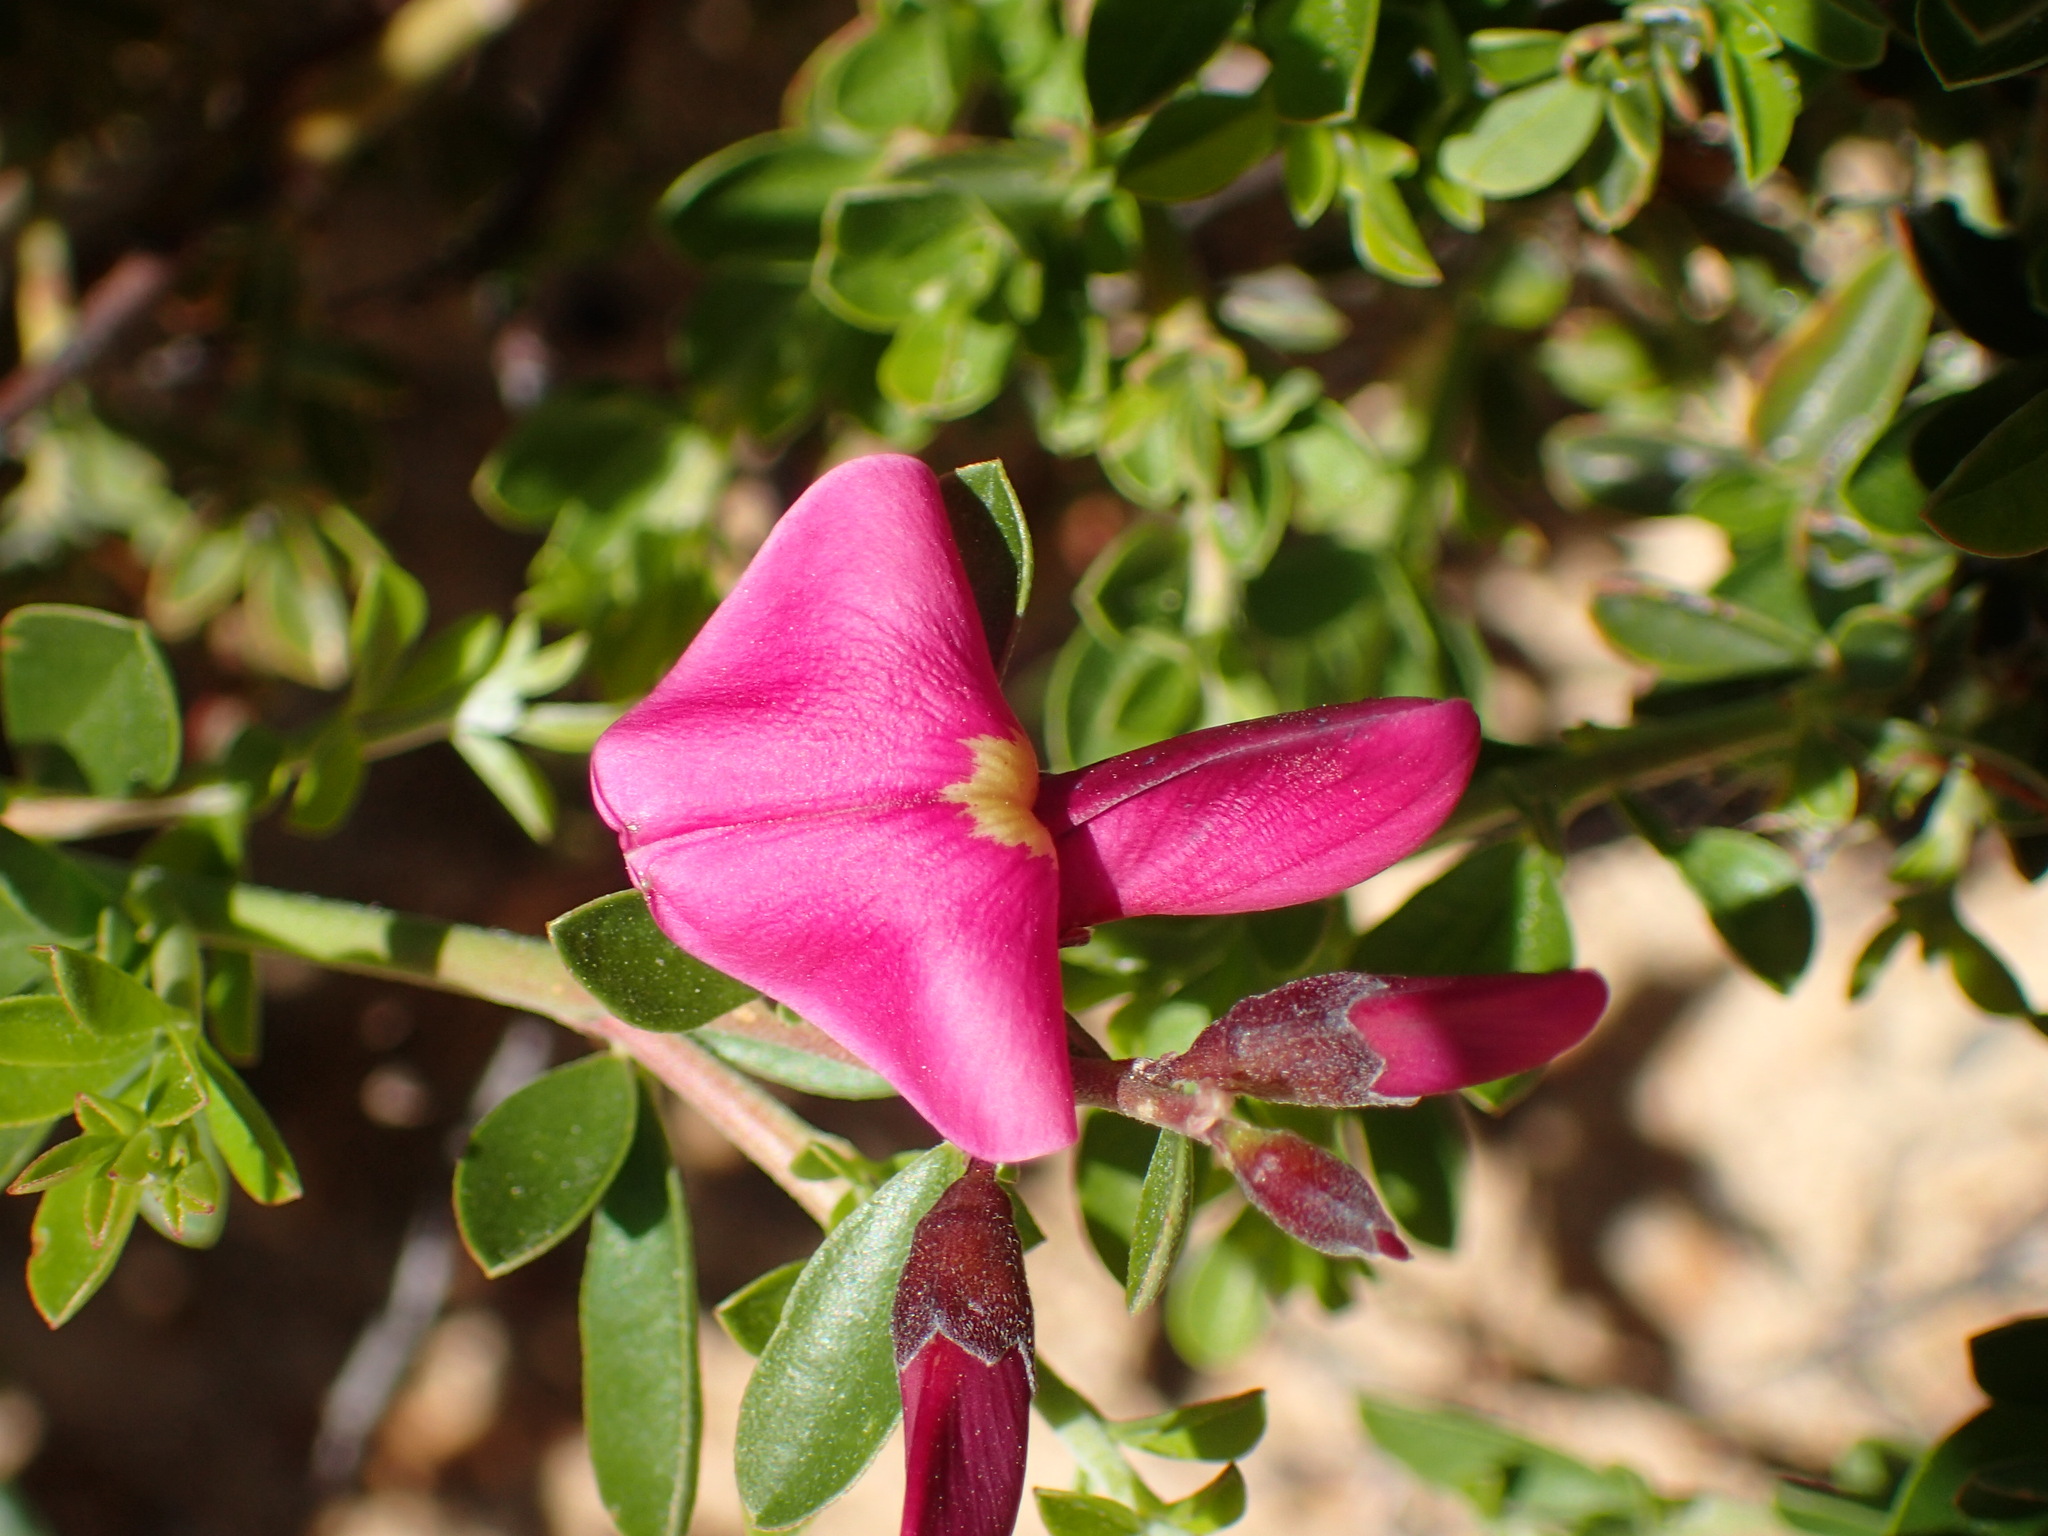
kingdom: Plantae
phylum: Tracheophyta
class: Magnoliopsida
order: Fabales
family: Fabaceae
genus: Pickeringia
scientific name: Pickeringia montana
